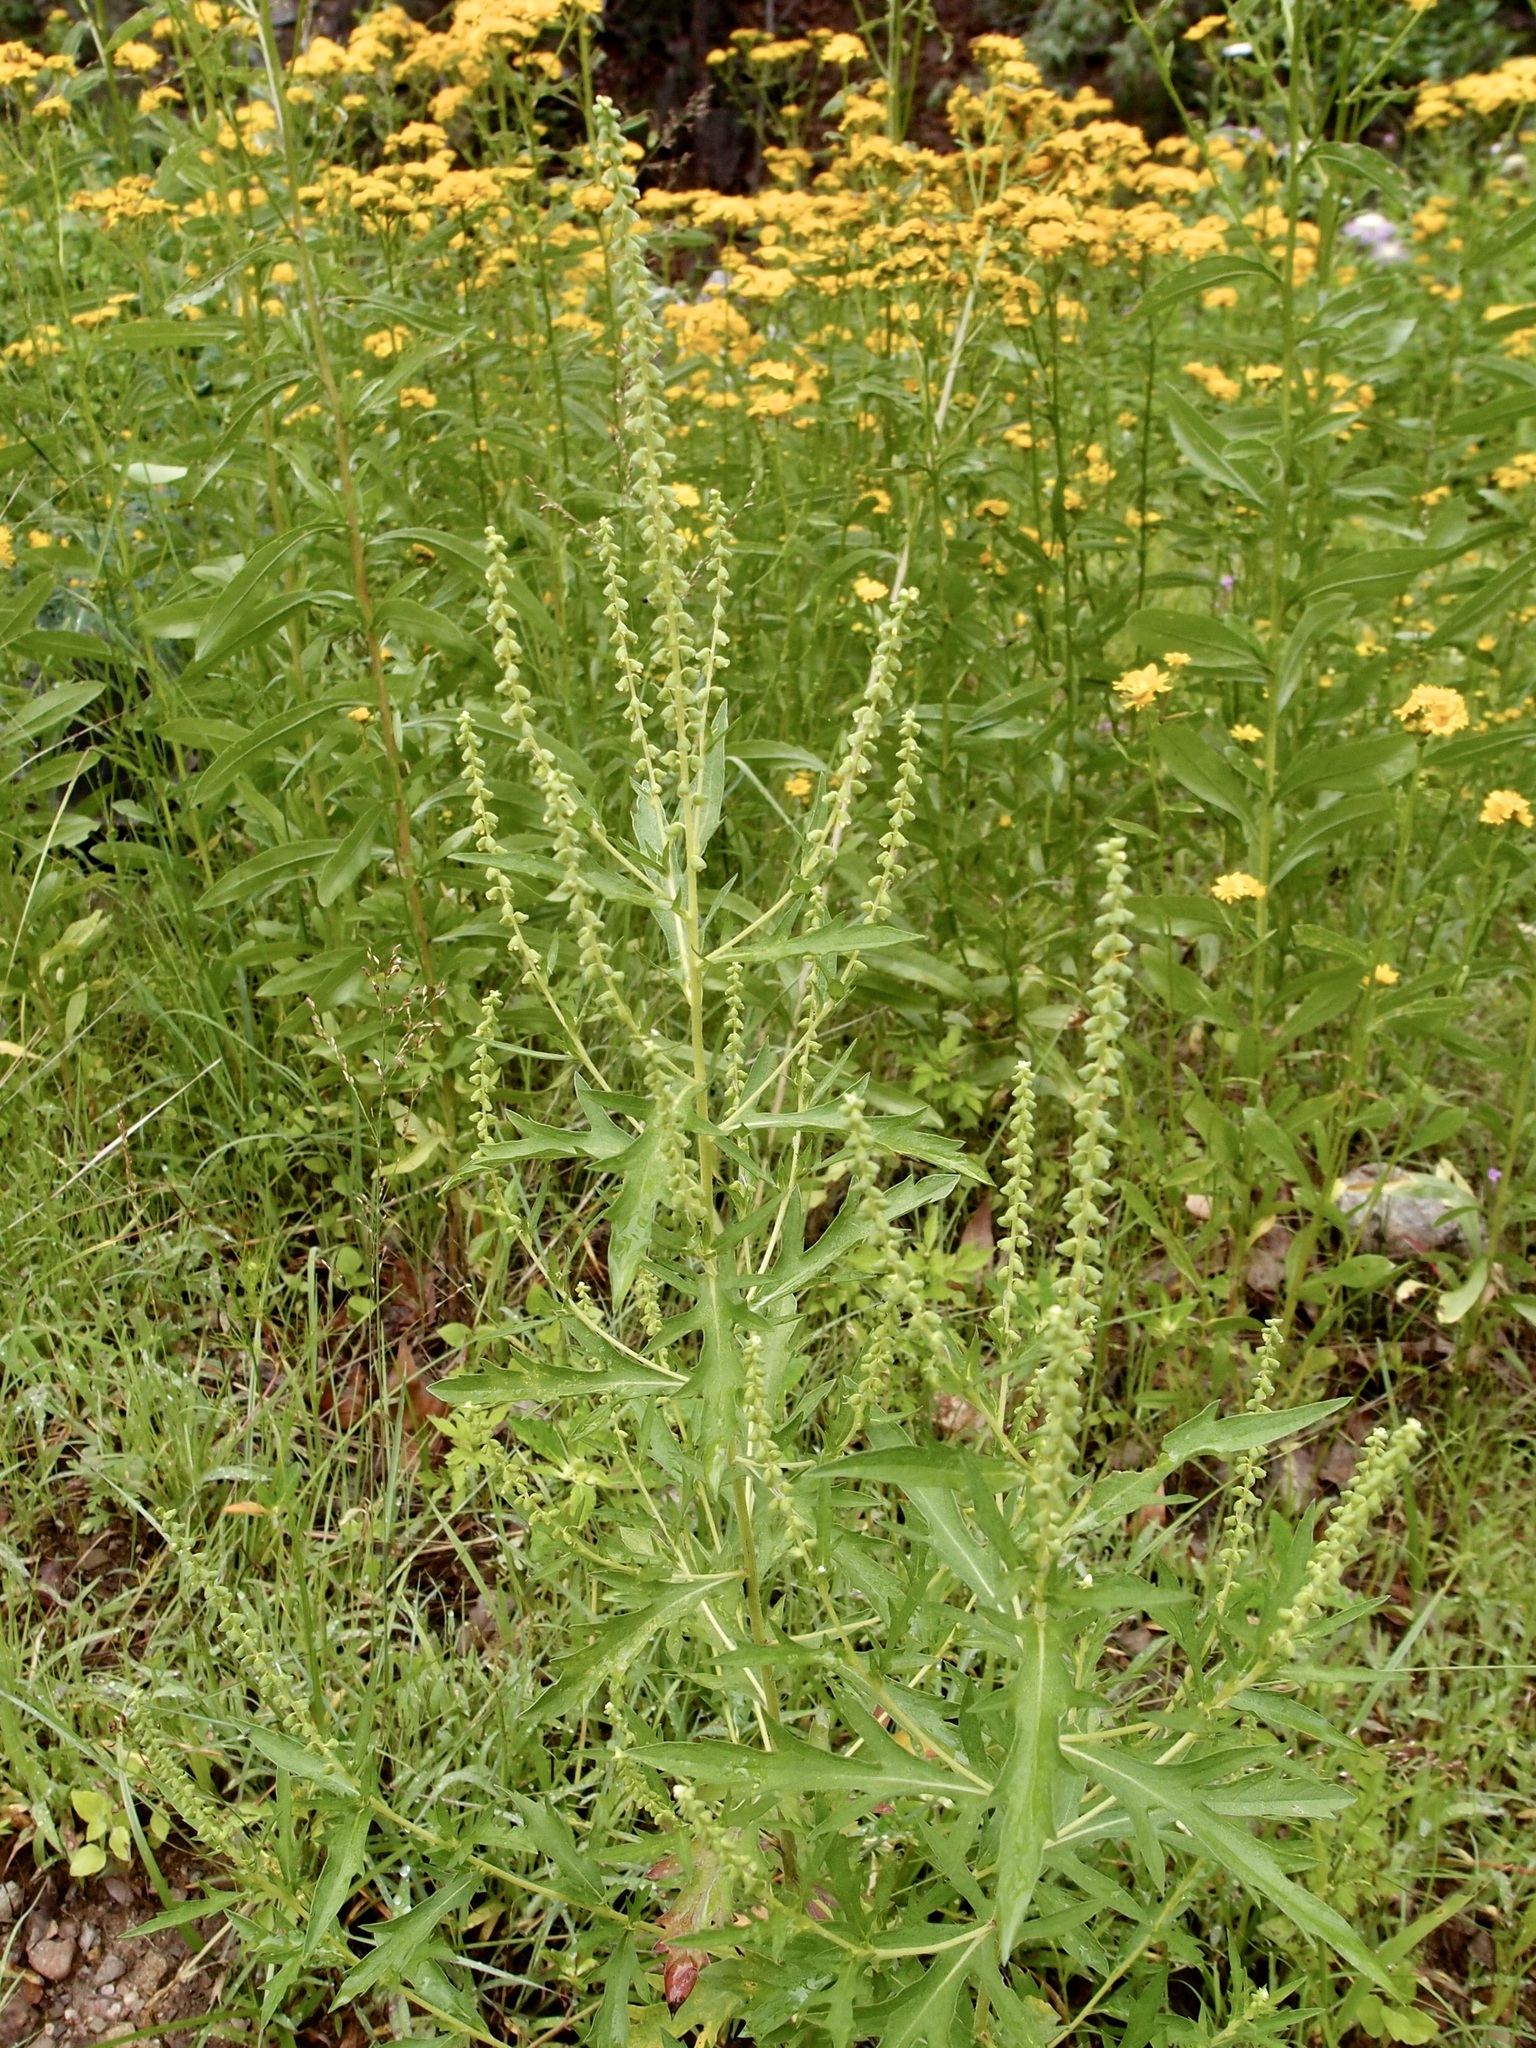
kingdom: Plantae
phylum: Tracheophyta
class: Magnoliopsida
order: Asterales
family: Asteraceae
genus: Ambrosia
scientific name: Ambrosia psilostachya
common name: Perennial ragweed
